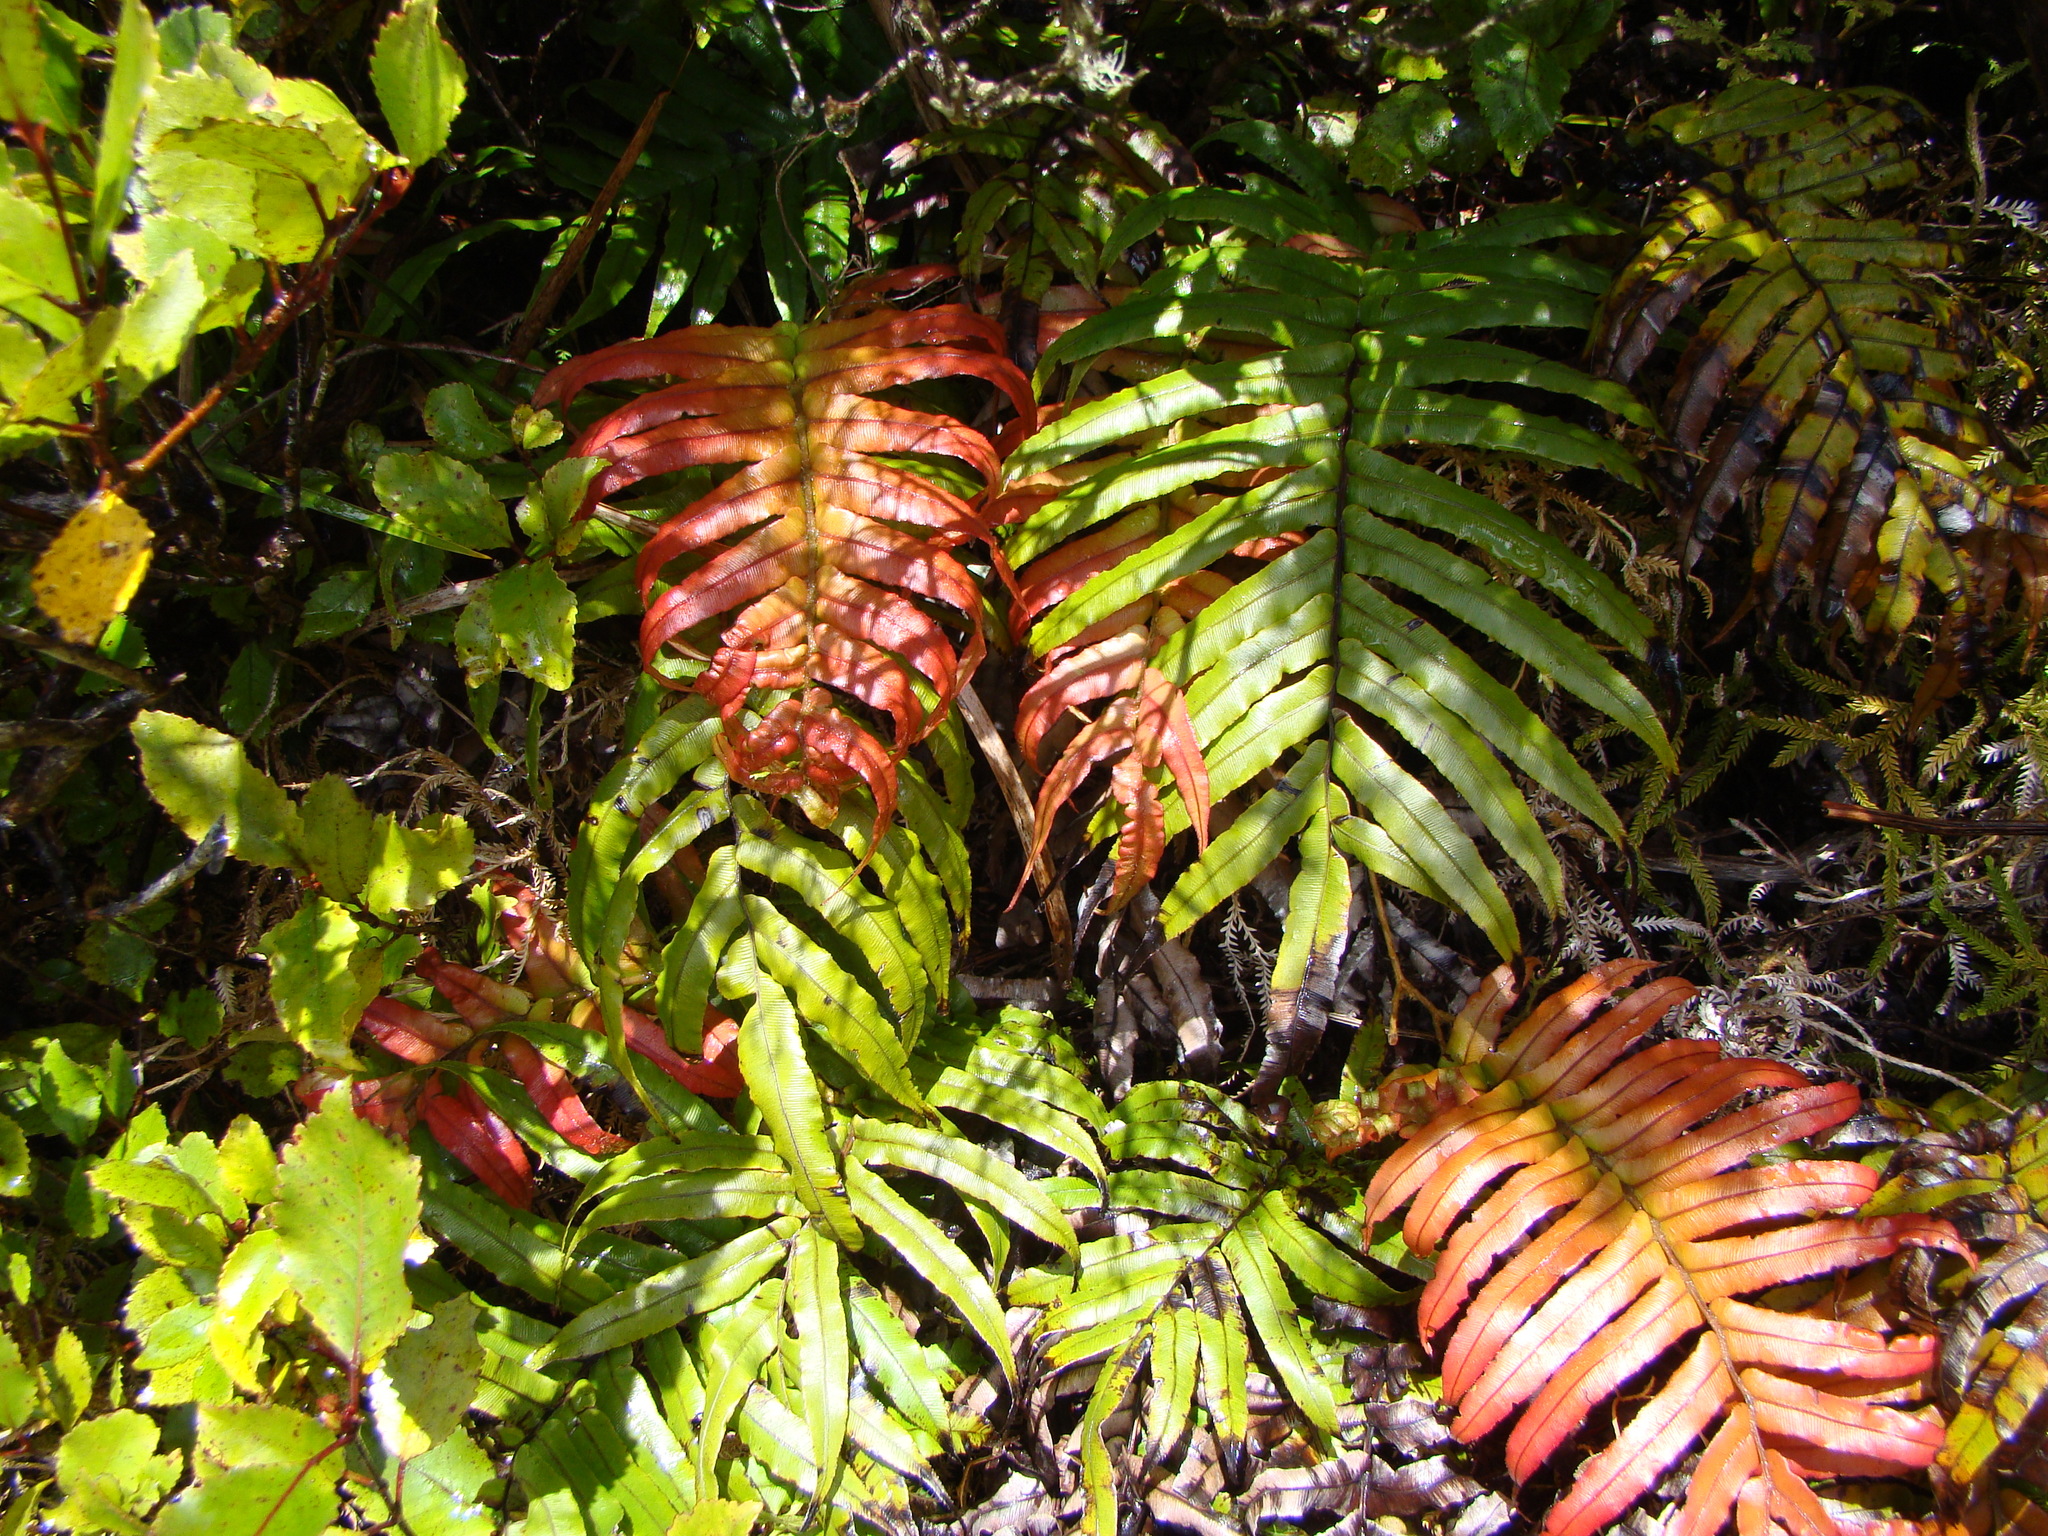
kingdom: Plantae
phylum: Tracheophyta
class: Polypodiopsida
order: Polypodiales
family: Blechnaceae
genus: Blechnum
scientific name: Blechnum
